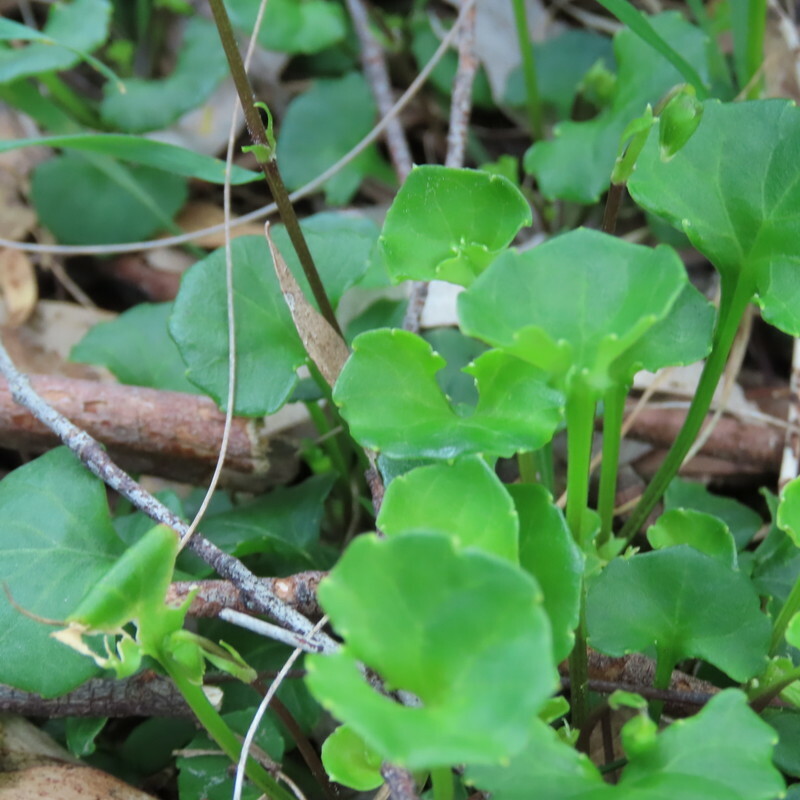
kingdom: Plantae
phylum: Tracheophyta
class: Magnoliopsida
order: Malpighiales
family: Violaceae
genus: Viola
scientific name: Viola hederacea
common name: Australian violet
